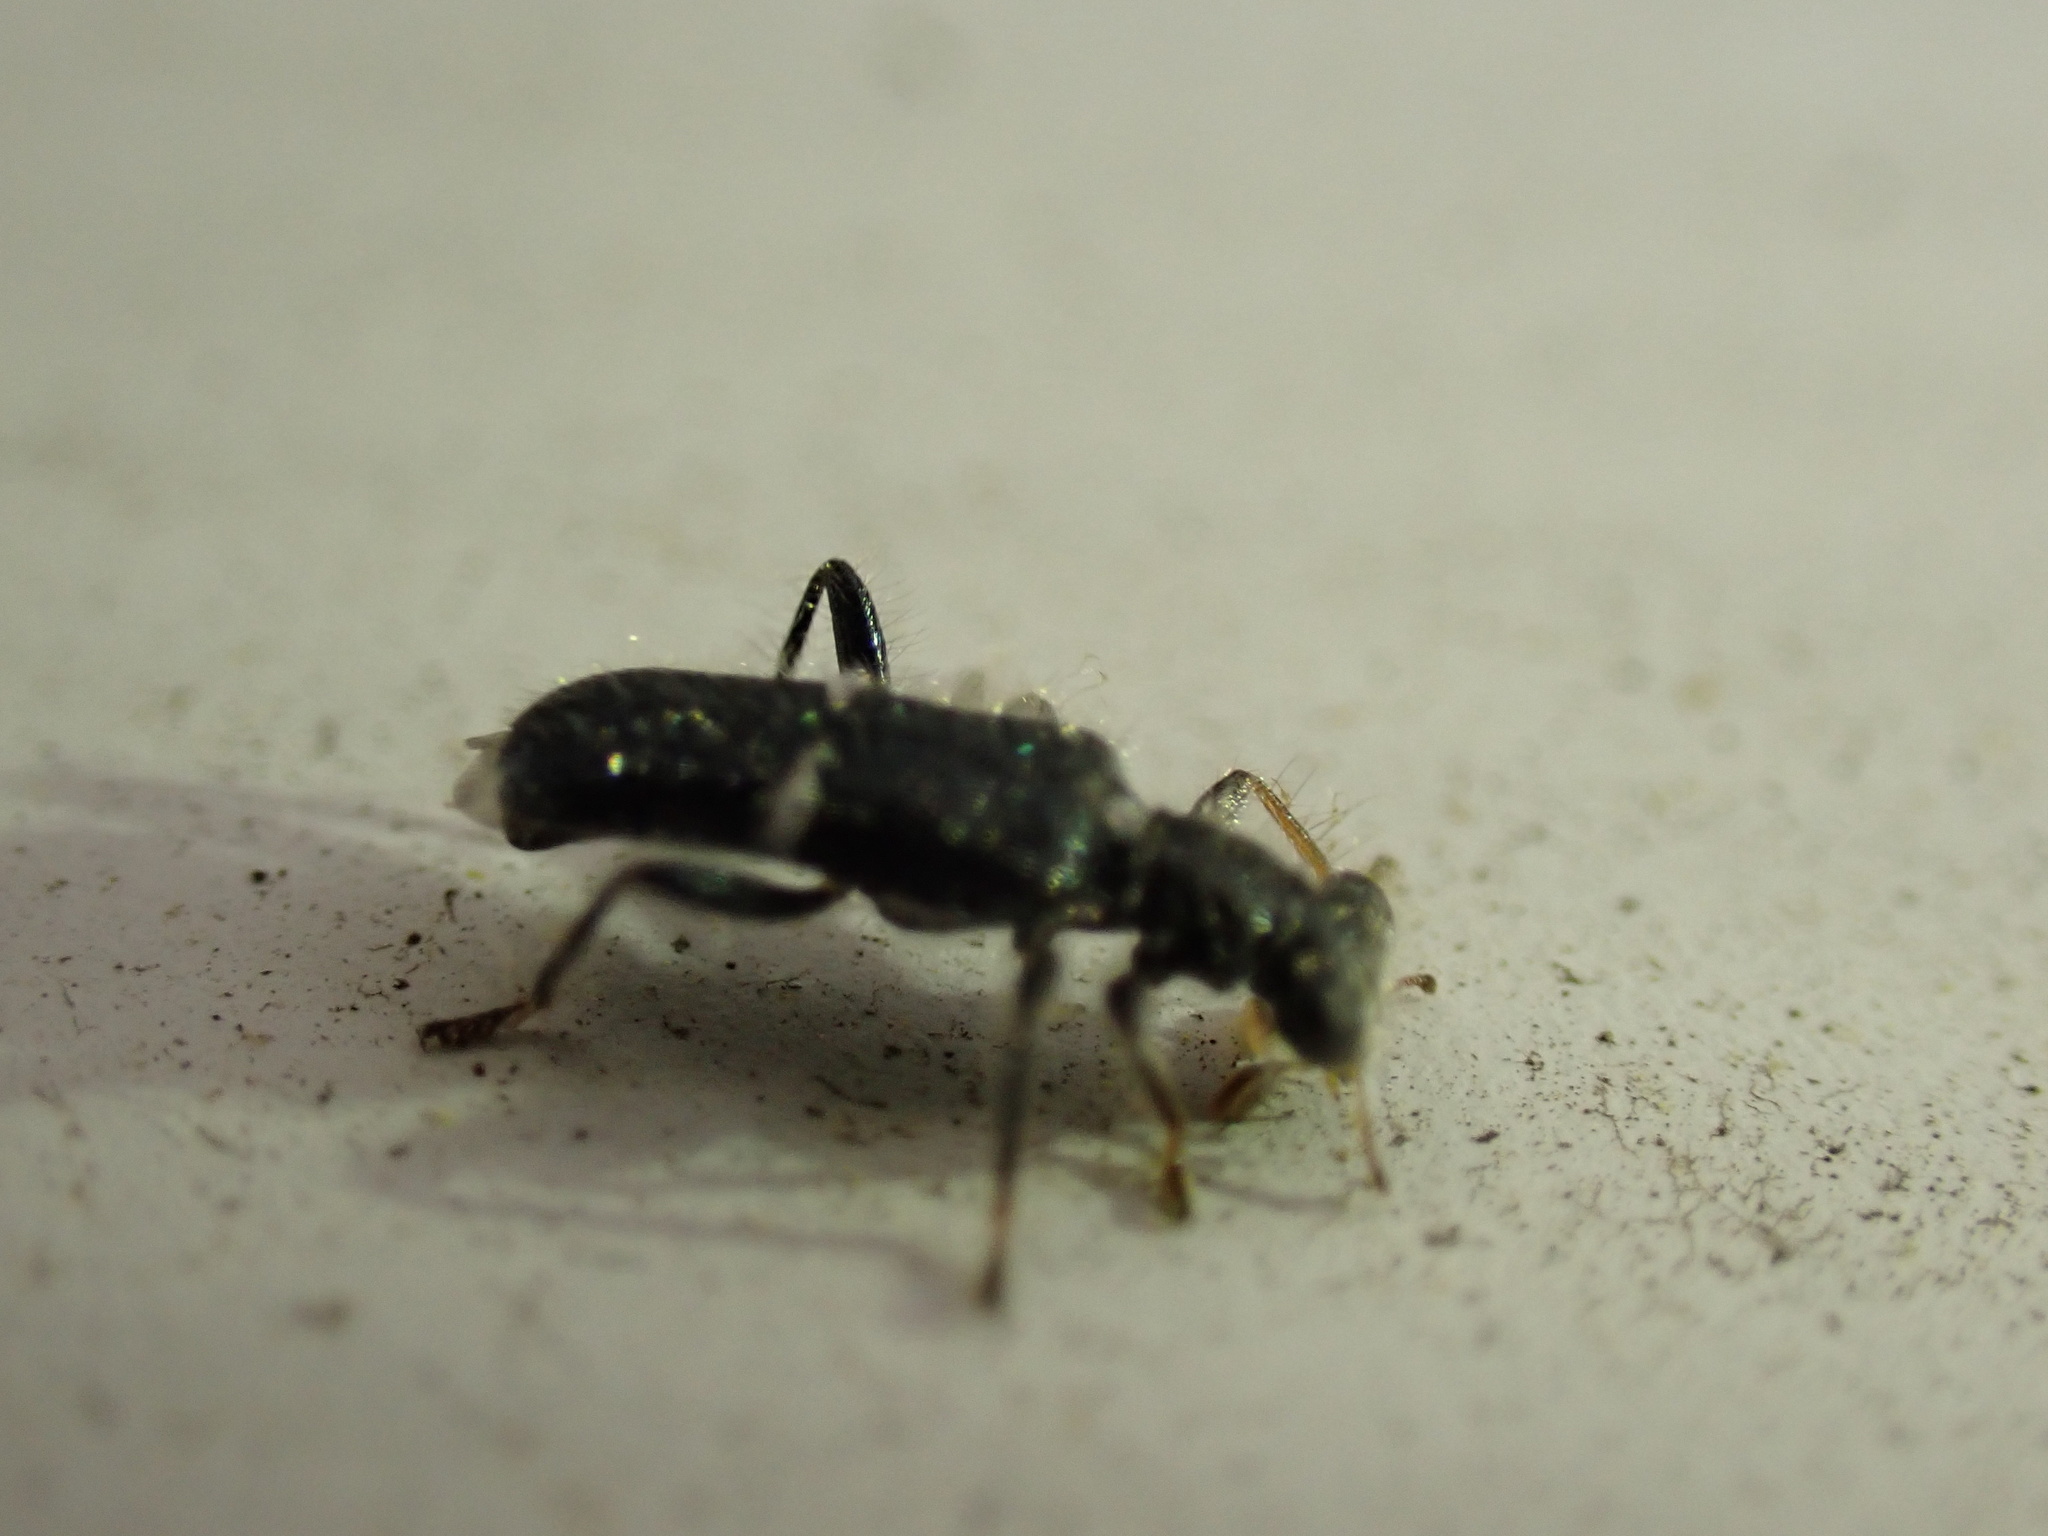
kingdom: Animalia
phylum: Arthropoda
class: Insecta
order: Coleoptera
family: Cleridae
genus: Phyllobaenus
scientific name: Phyllobaenus unifasciatus
